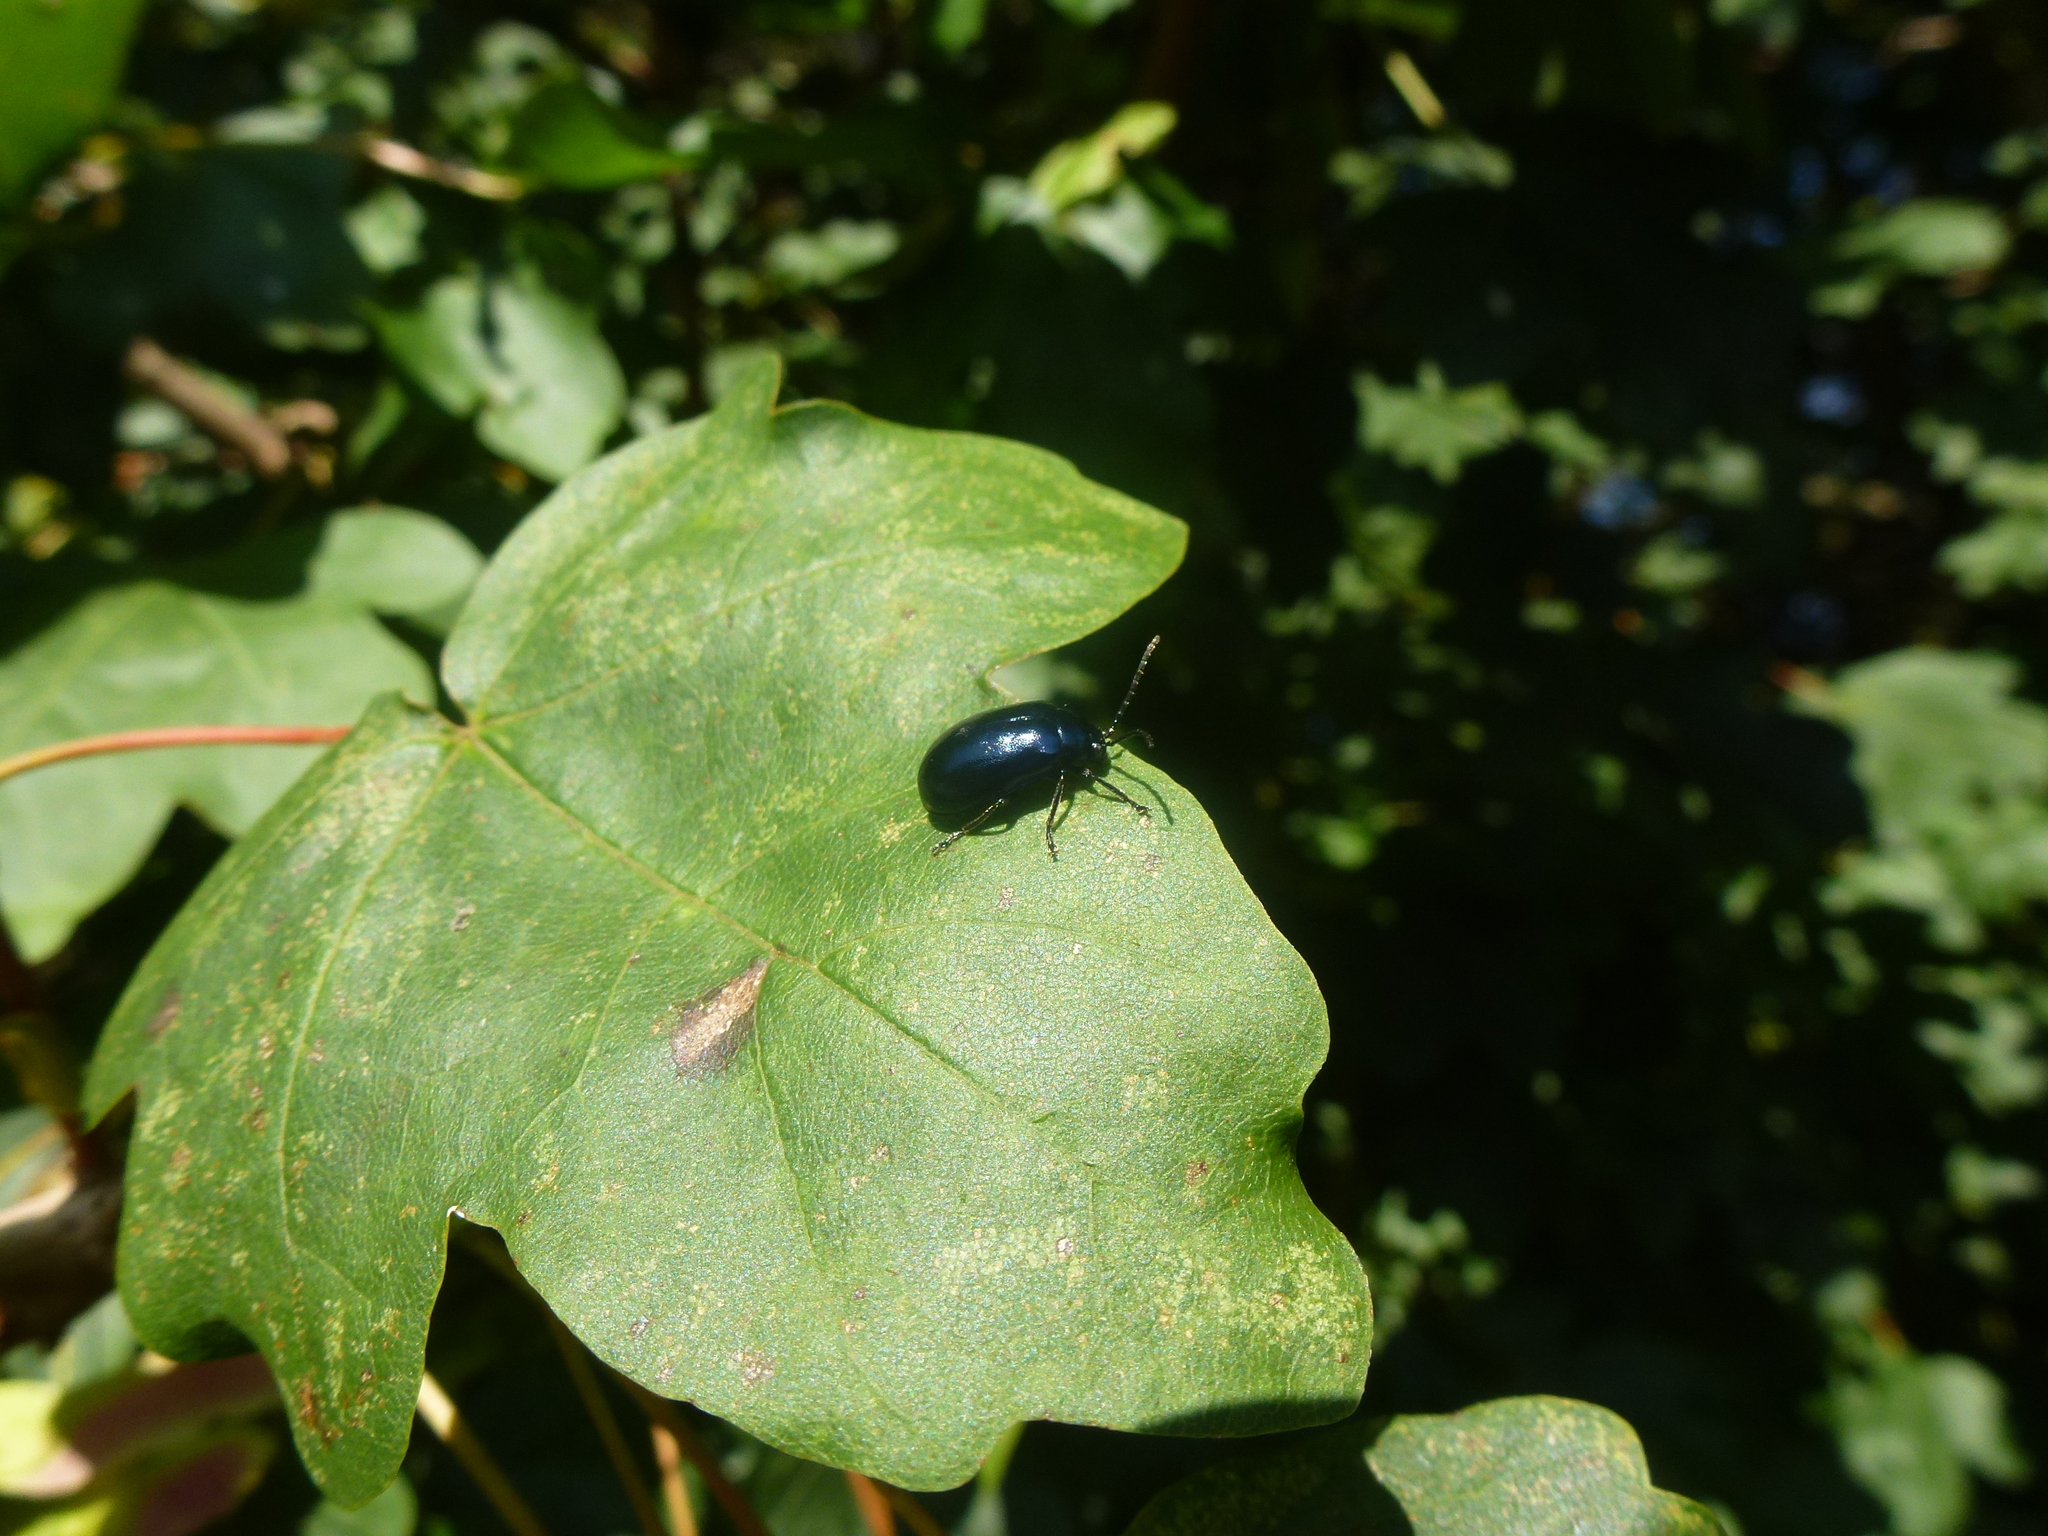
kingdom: Animalia
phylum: Arthropoda
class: Insecta
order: Coleoptera
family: Chrysomelidae
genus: Agelastica
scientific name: Agelastica alni
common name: Alder leaf beetle
